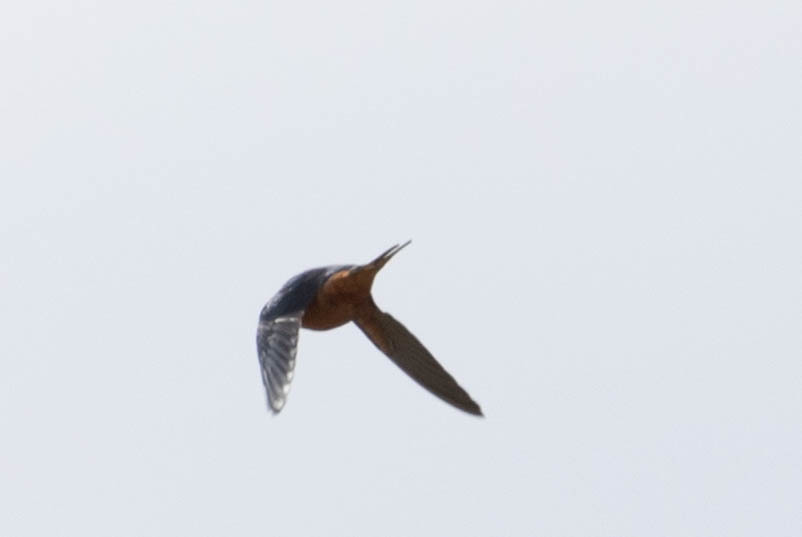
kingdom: Animalia
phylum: Chordata
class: Aves
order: Passeriformes
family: Hirundinidae
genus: Hirundo
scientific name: Hirundo rustica
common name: Barn swallow
